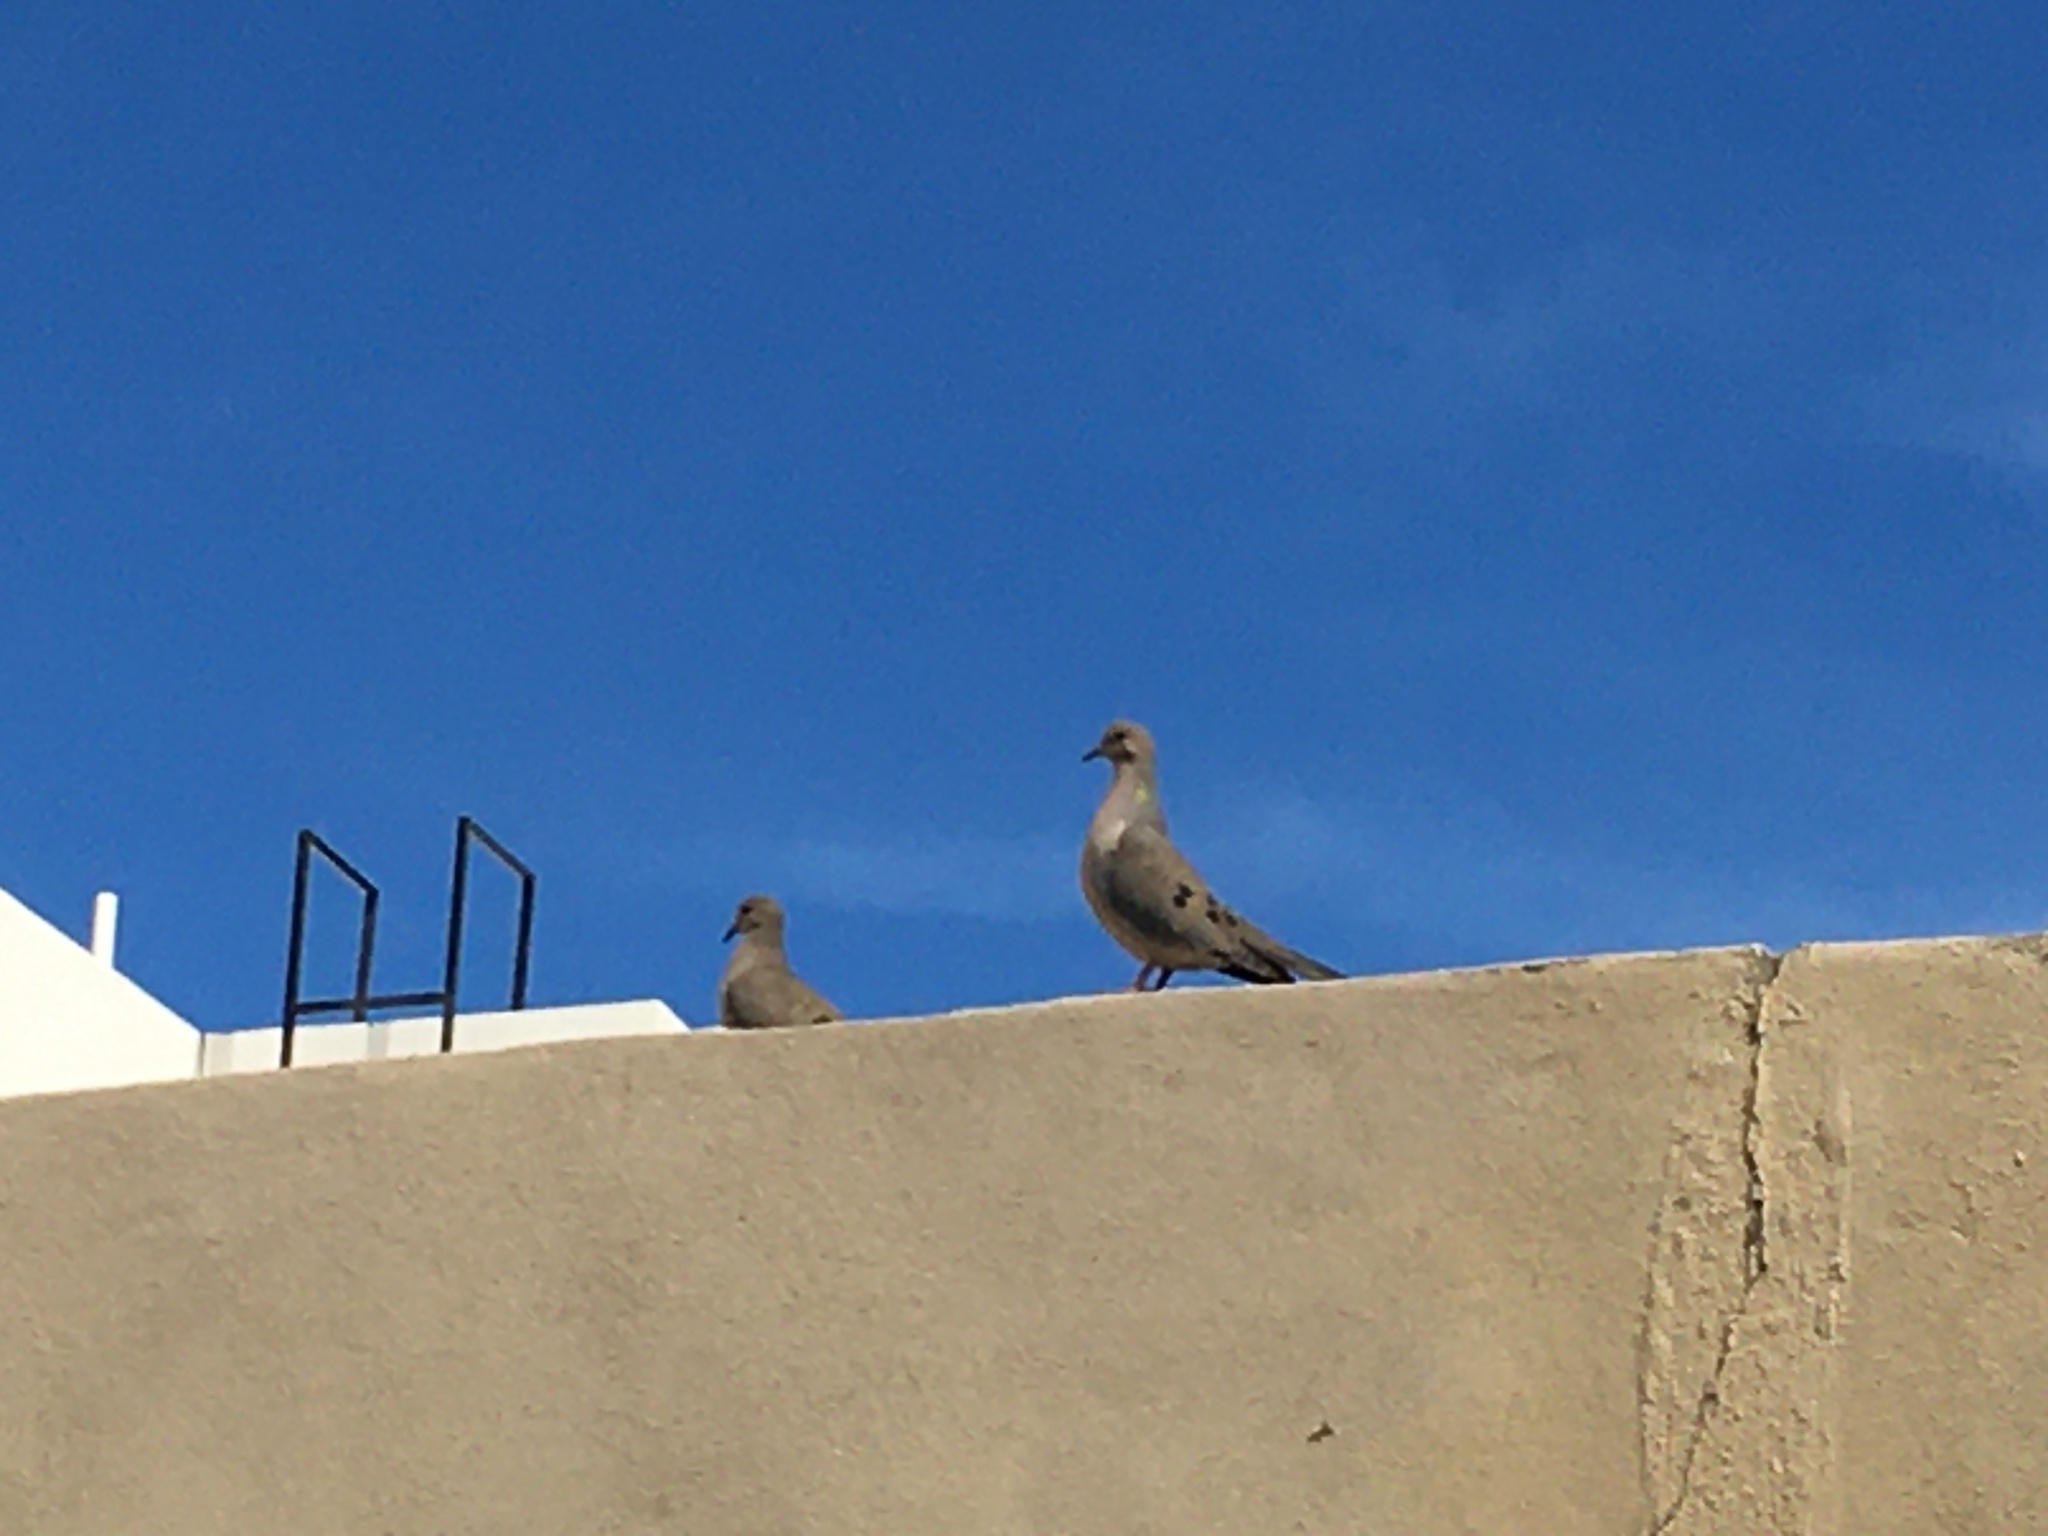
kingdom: Animalia
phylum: Chordata
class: Aves
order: Columbiformes
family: Columbidae
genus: Zenaida
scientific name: Zenaida macroura
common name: Mourning dove
